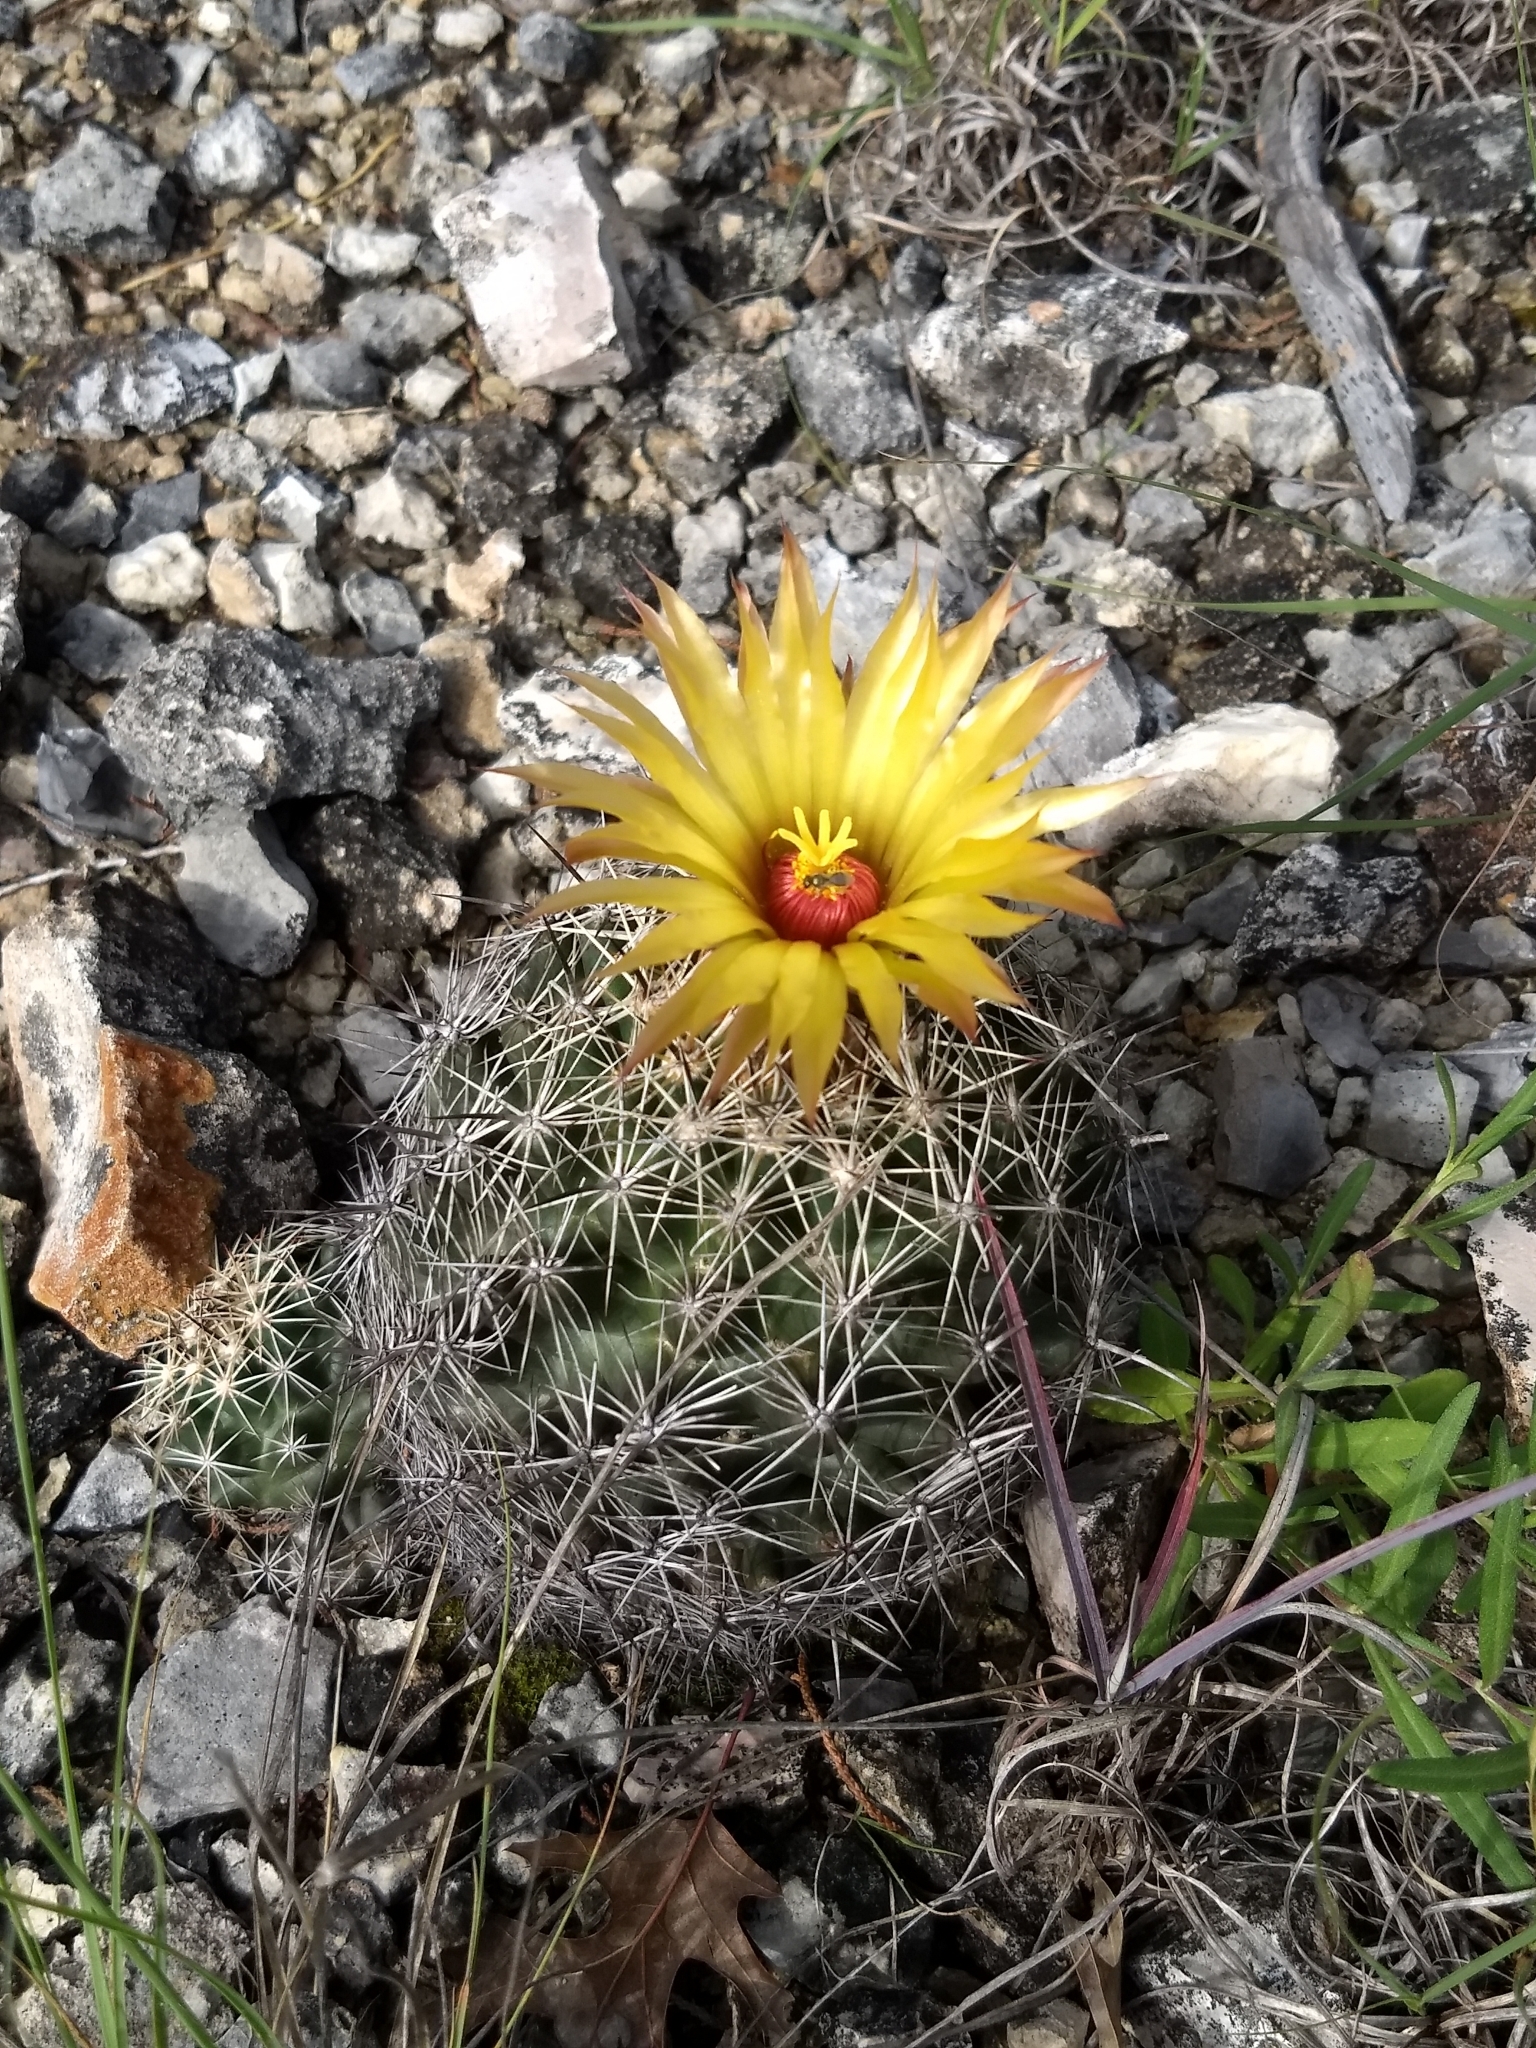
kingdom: Plantae
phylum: Tracheophyta
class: Magnoliopsida
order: Caryophyllales
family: Cactaceae
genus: Coryphantha
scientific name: Coryphantha sulcata
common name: Finger cactus
